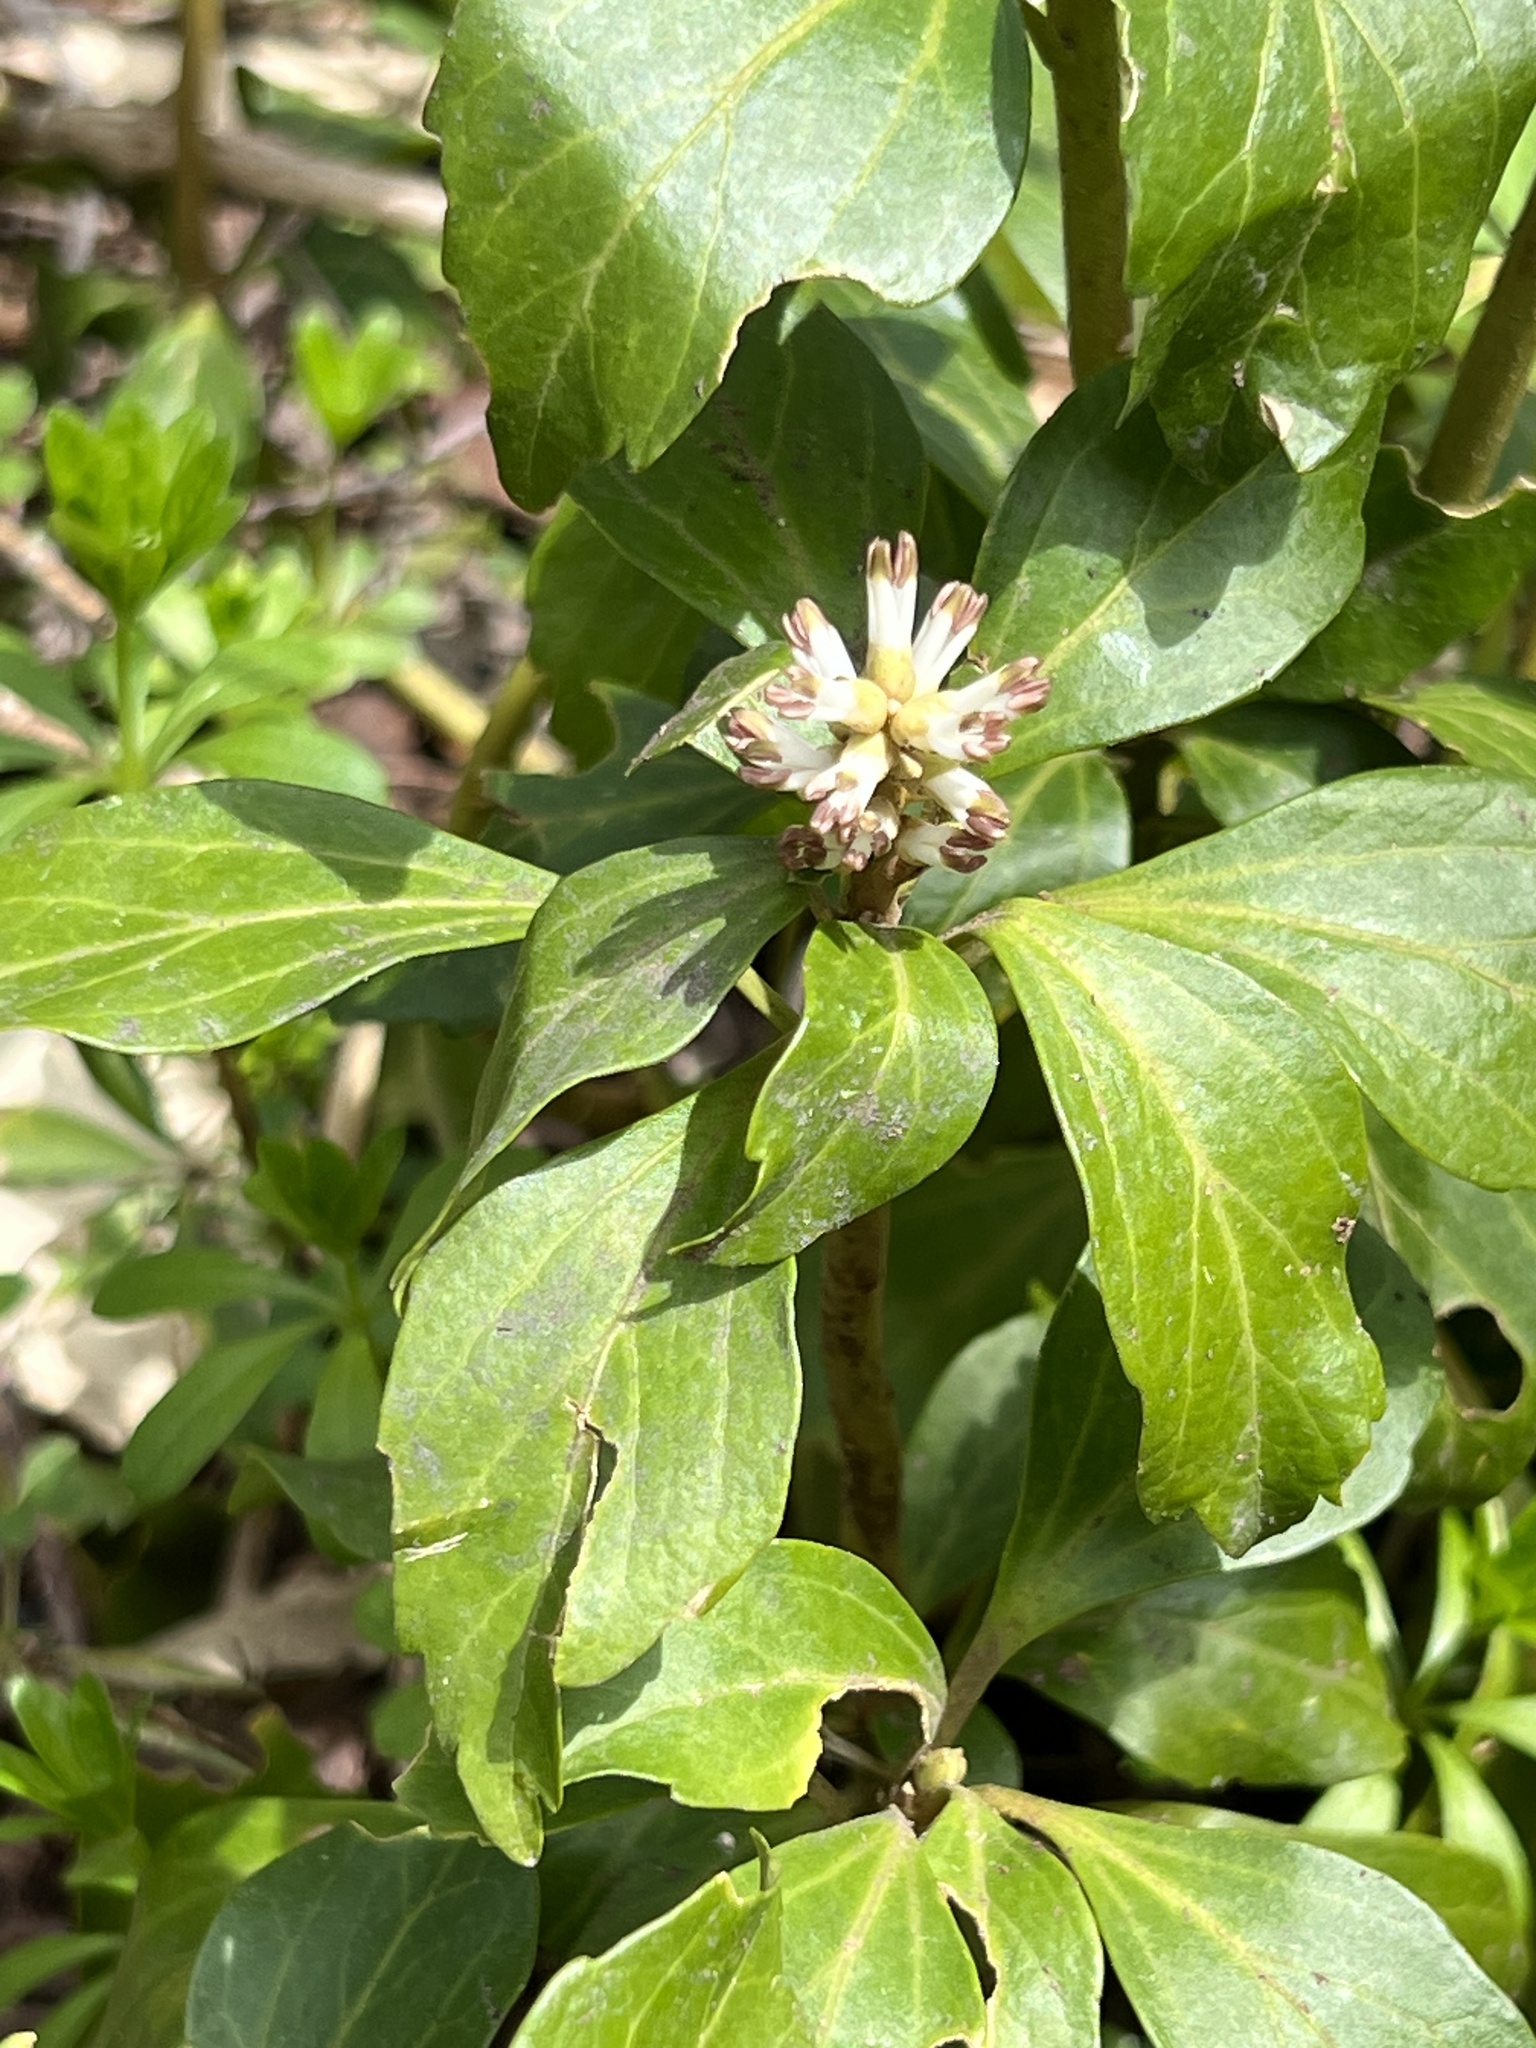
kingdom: Plantae
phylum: Tracheophyta
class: Magnoliopsida
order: Buxales
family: Buxaceae
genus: Pachysandra
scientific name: Pachysandra terminalis
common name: Japanese pachysandra
